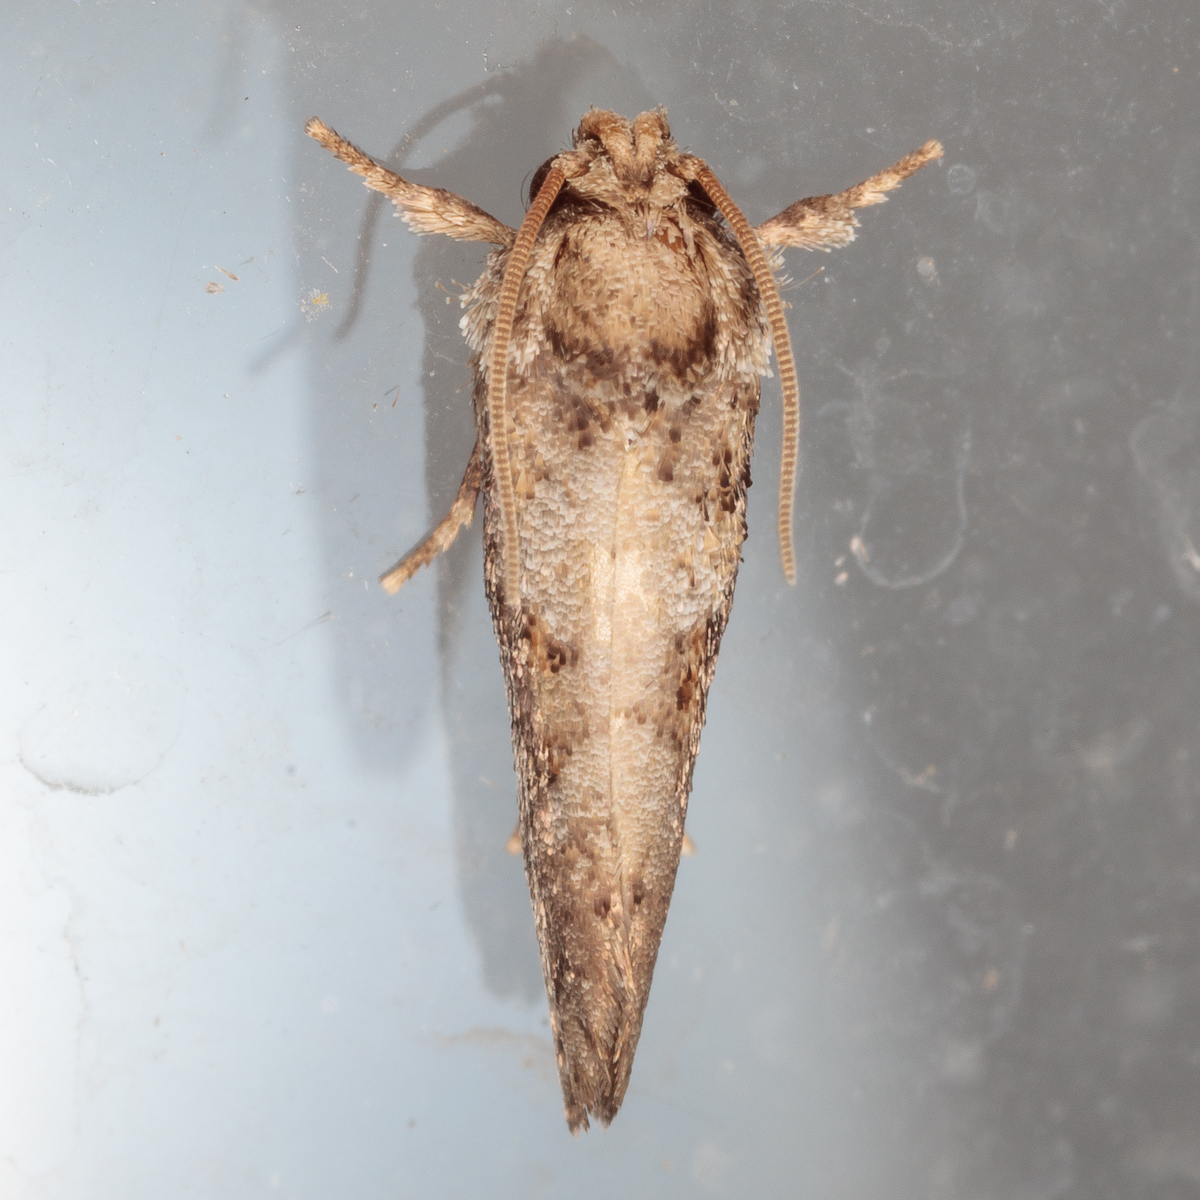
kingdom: Animalia
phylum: Arthropoda
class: Insecta
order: Lepidoptera
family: Tineidae
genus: Acrolophus
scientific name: Acrolophus piger
